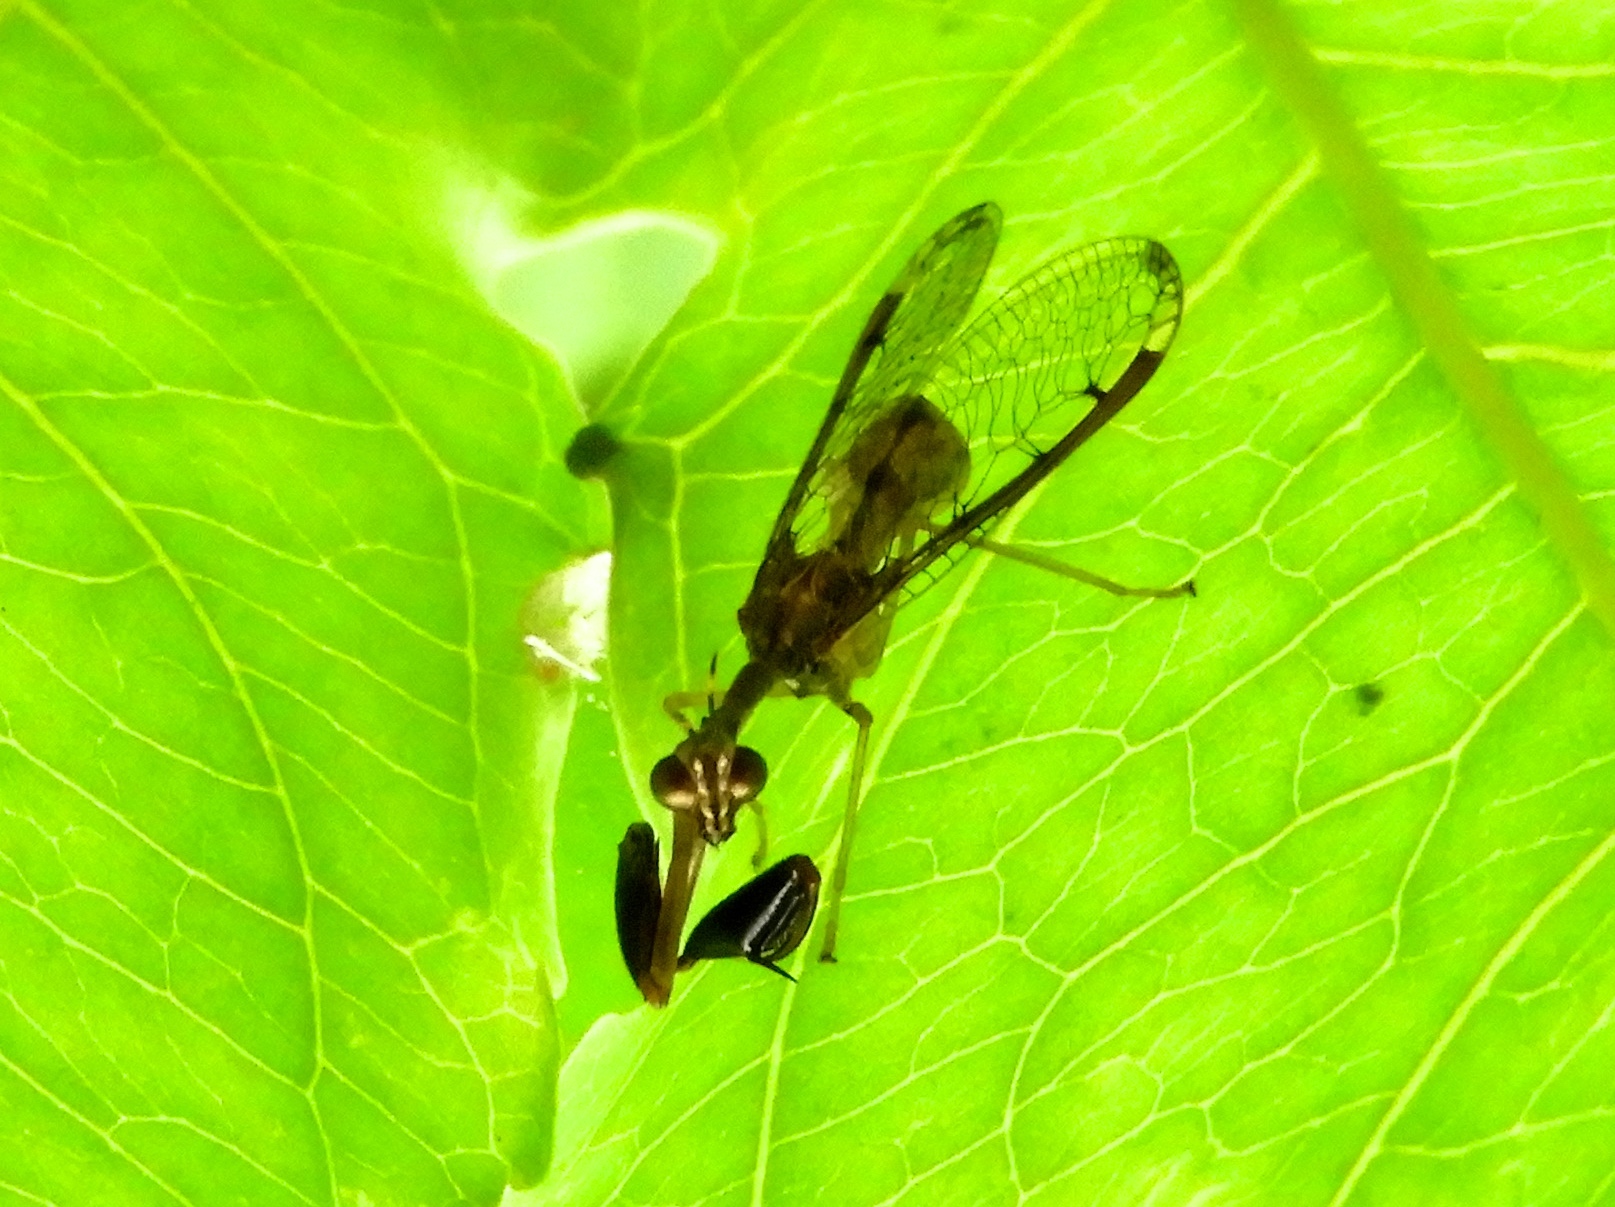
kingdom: Animalia
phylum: Arthropoda
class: Insecta
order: Neuroptera
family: Mantispidae
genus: Dicromantispa
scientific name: Dicromantispa interrupta
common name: Four-spotted mantidfly
